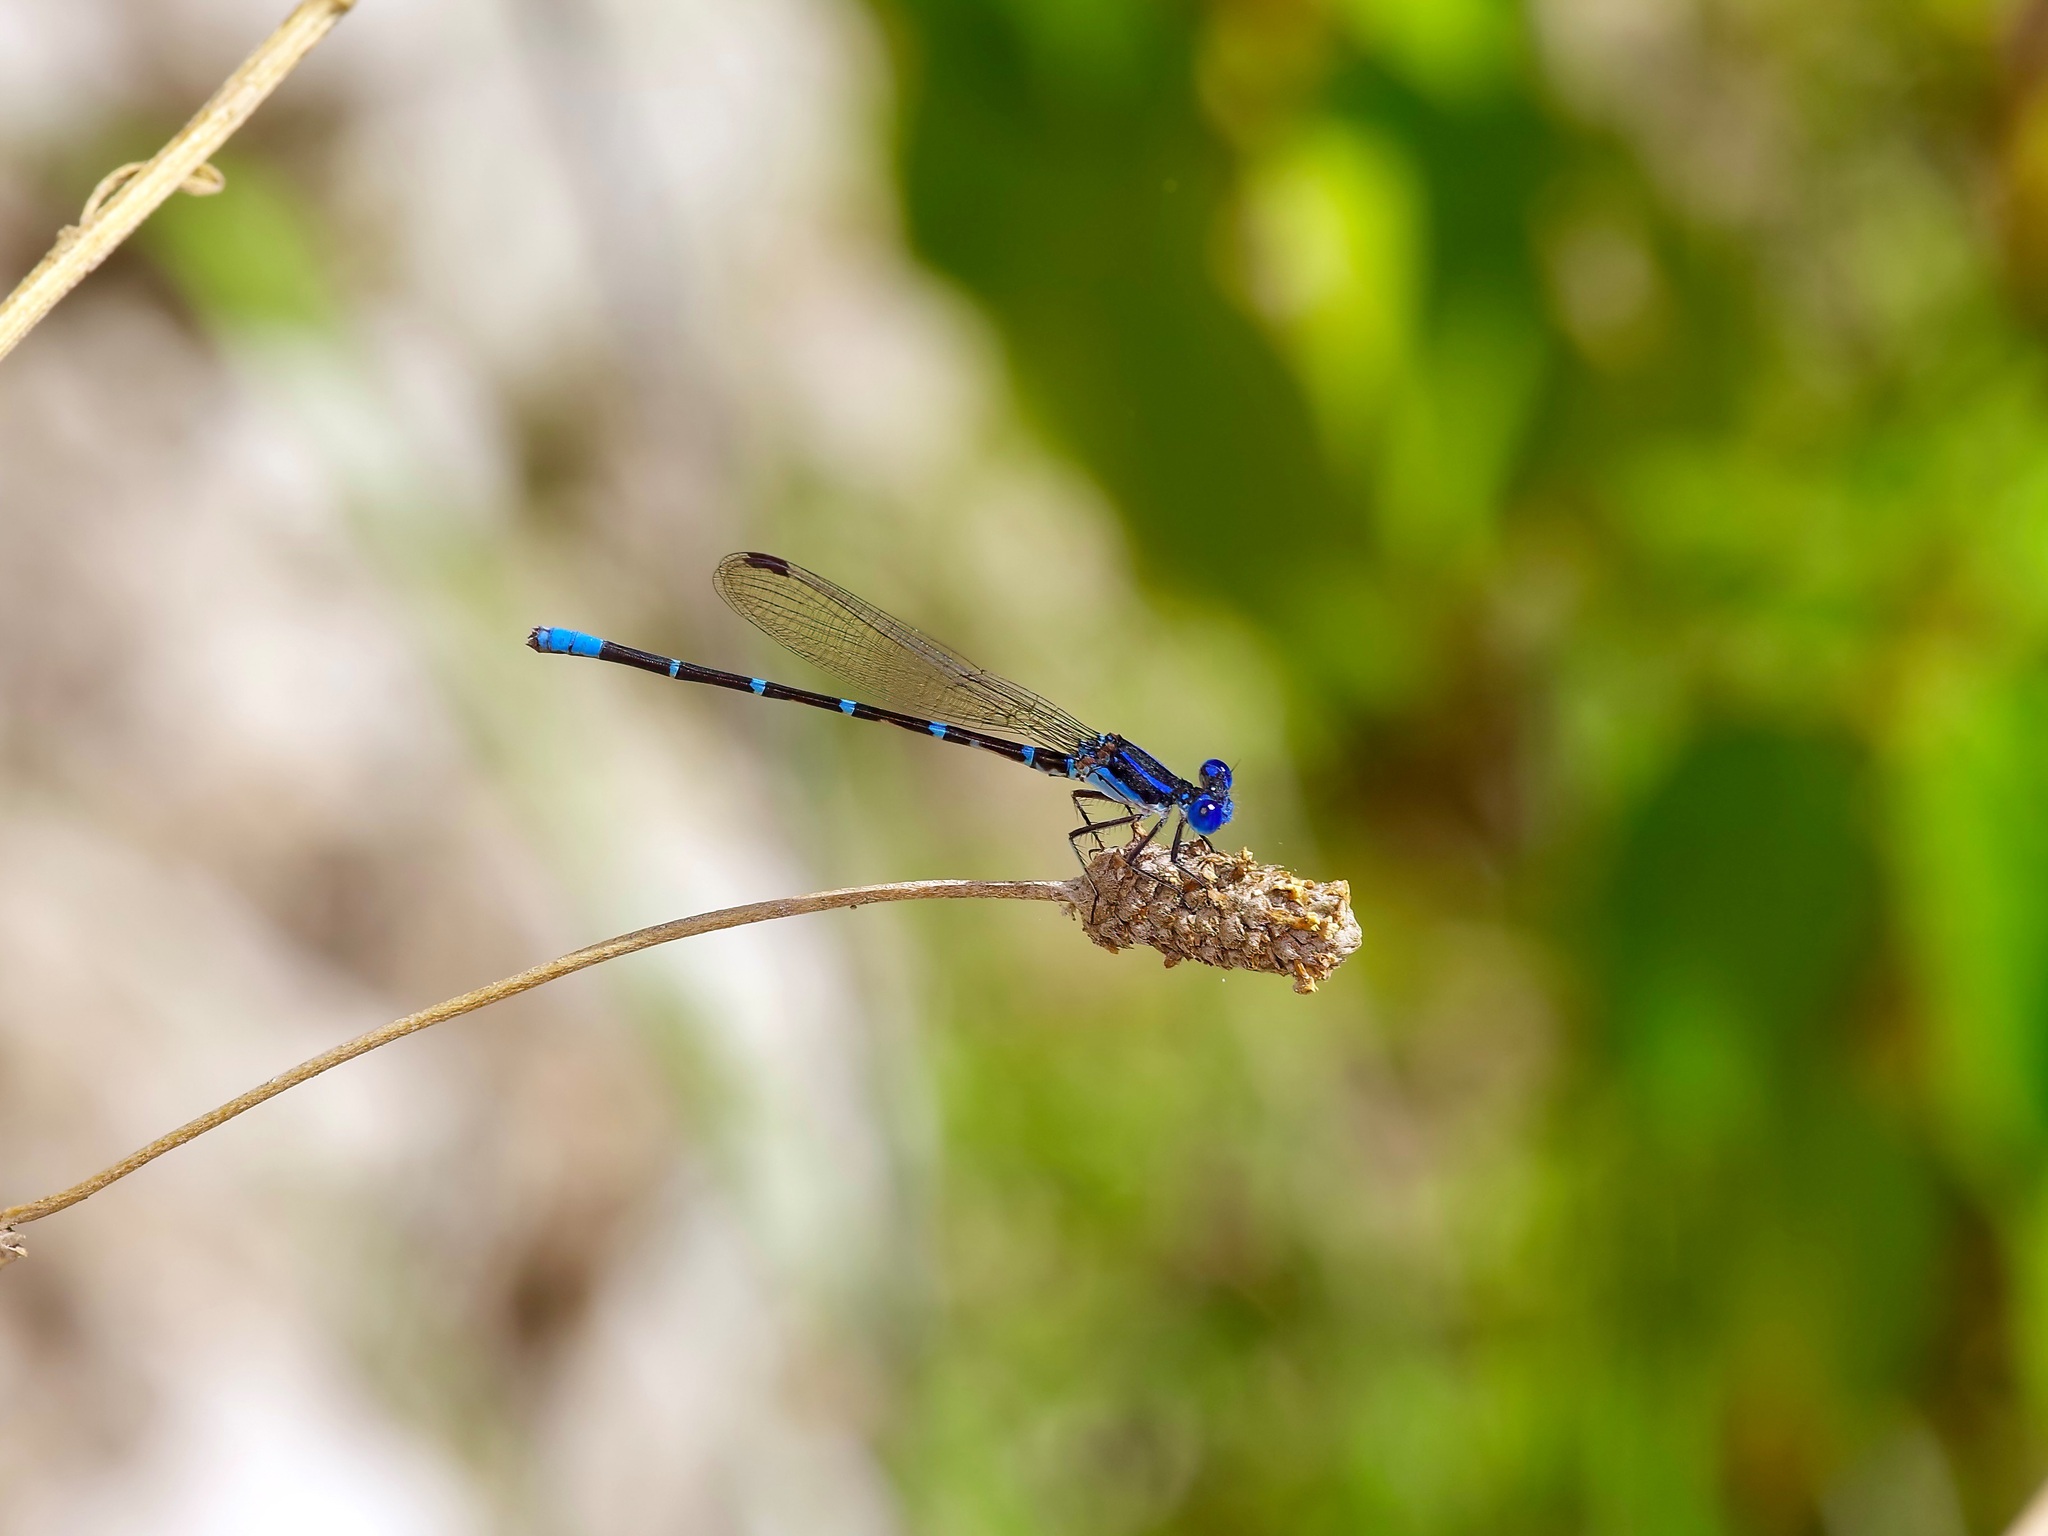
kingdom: Animalia
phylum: Arthropoda
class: Insecta
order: Odonata
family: Coenagrionidae
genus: Argia
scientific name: Argia sedula
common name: Blue-ringed dancer
